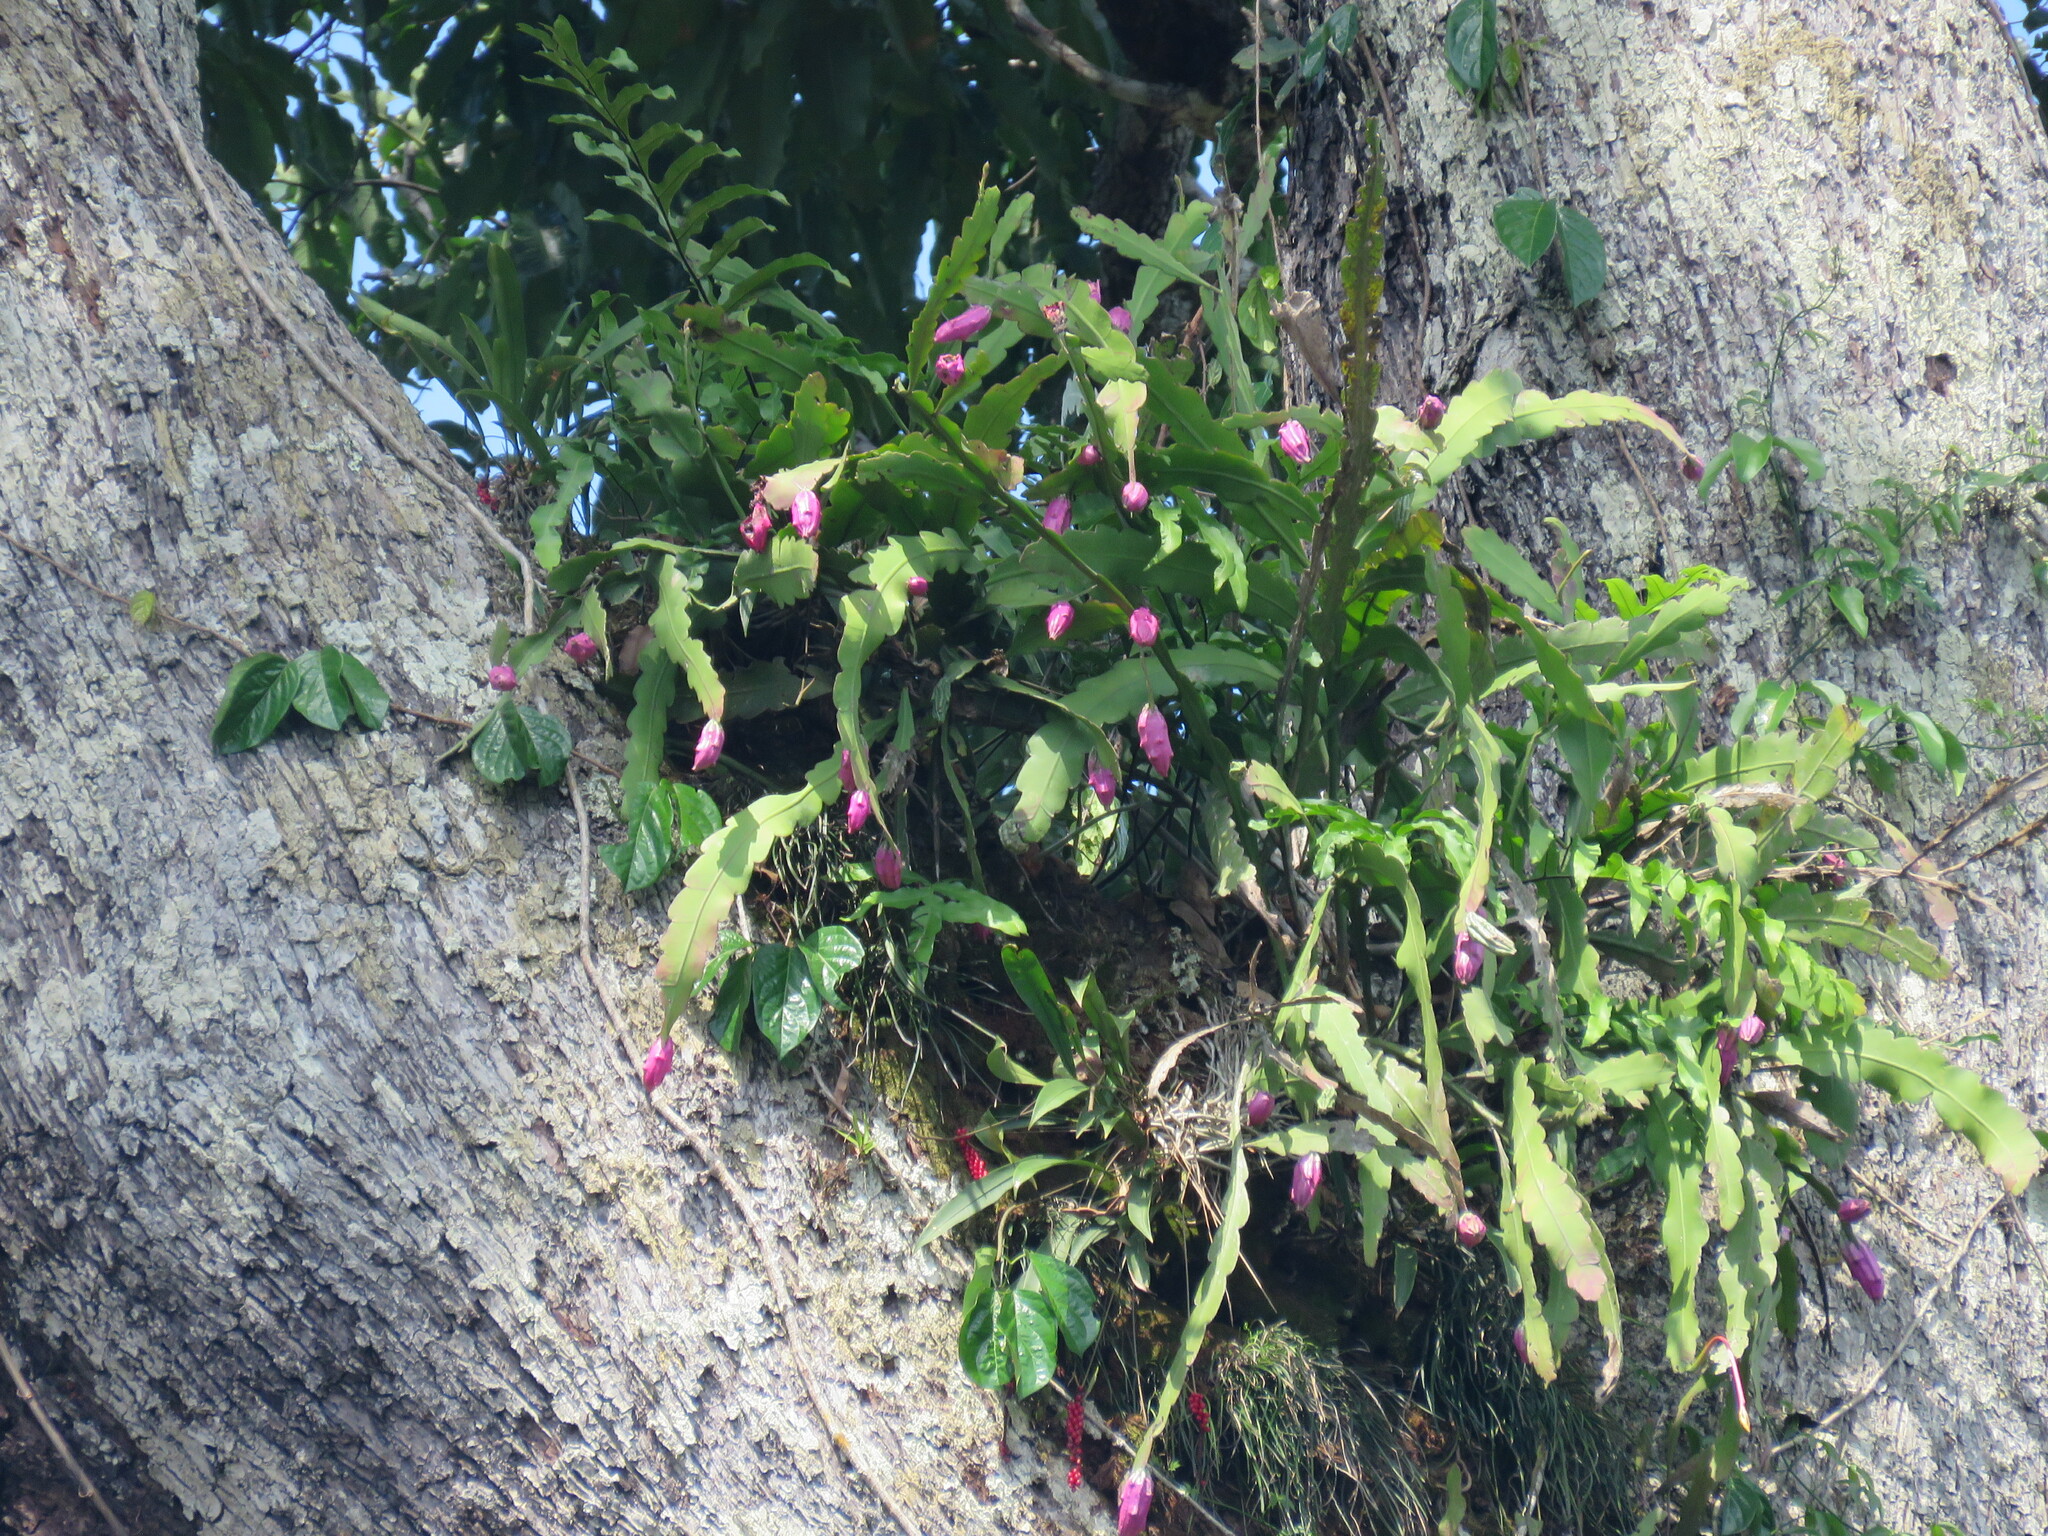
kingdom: Plantae
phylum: Tracheophyta
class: Magnoliopsida
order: Caryophyllales
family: Cactaceae
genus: Epiphyllum
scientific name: Epiphyllum phyllanthus
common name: Climbing cactus
